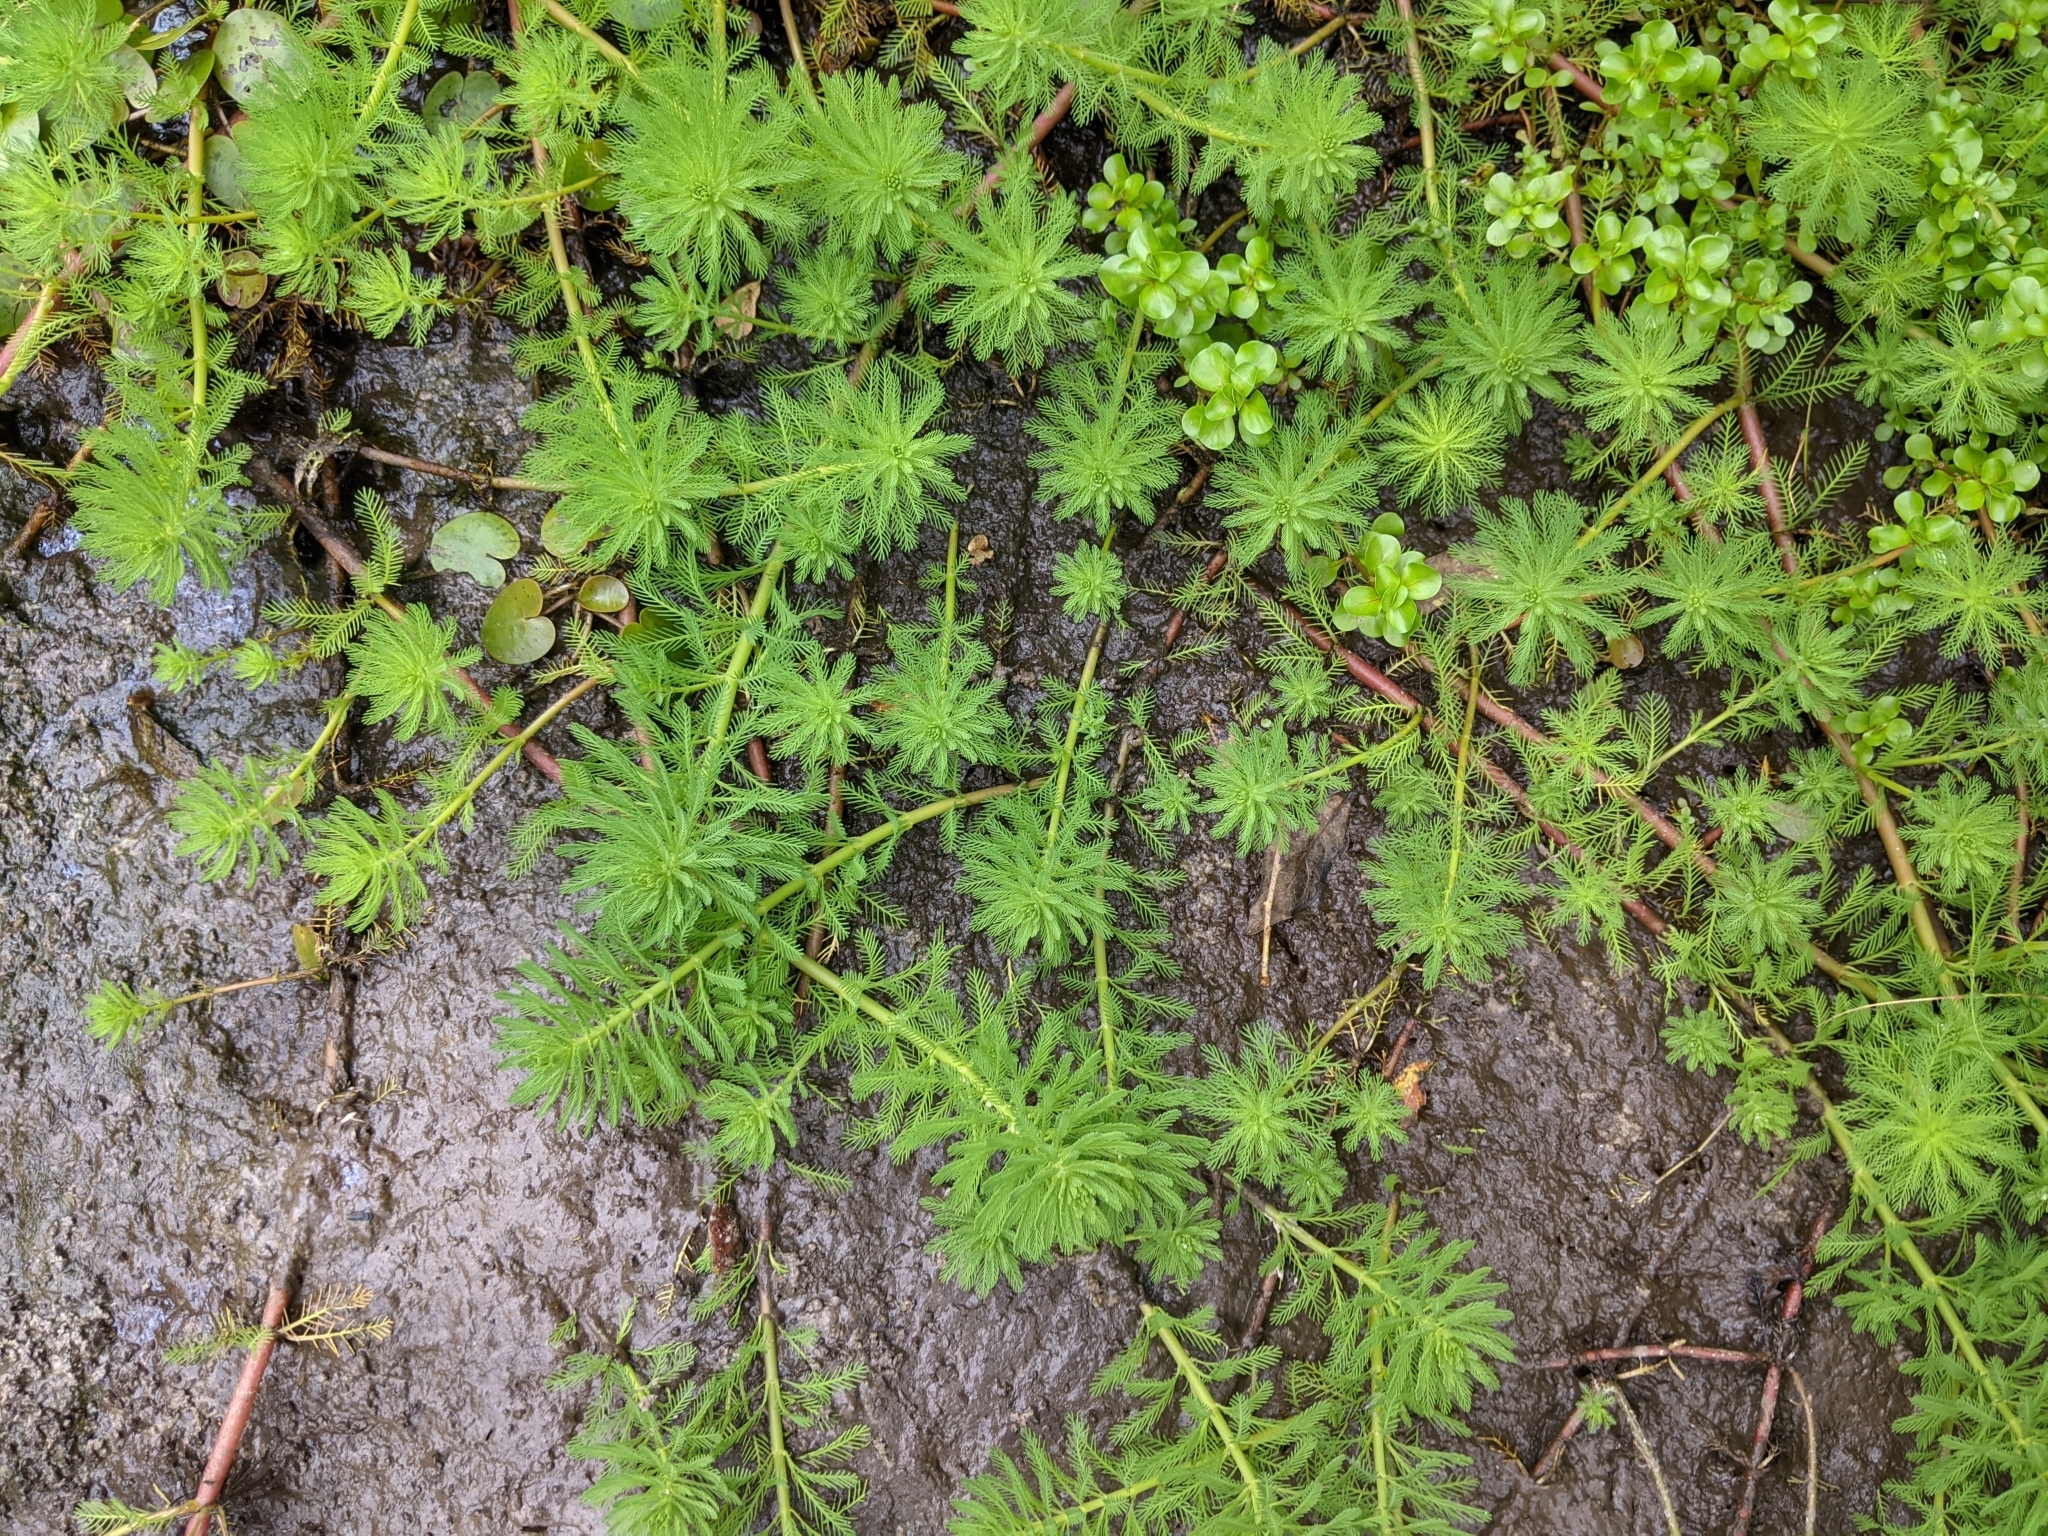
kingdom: Plantae
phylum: Tracheophyta
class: Magnoliopsida
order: Saxifragales
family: Haloragaceae
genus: Myriophyllum
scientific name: Myriophyllum aquaticum
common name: Parrot's feather
